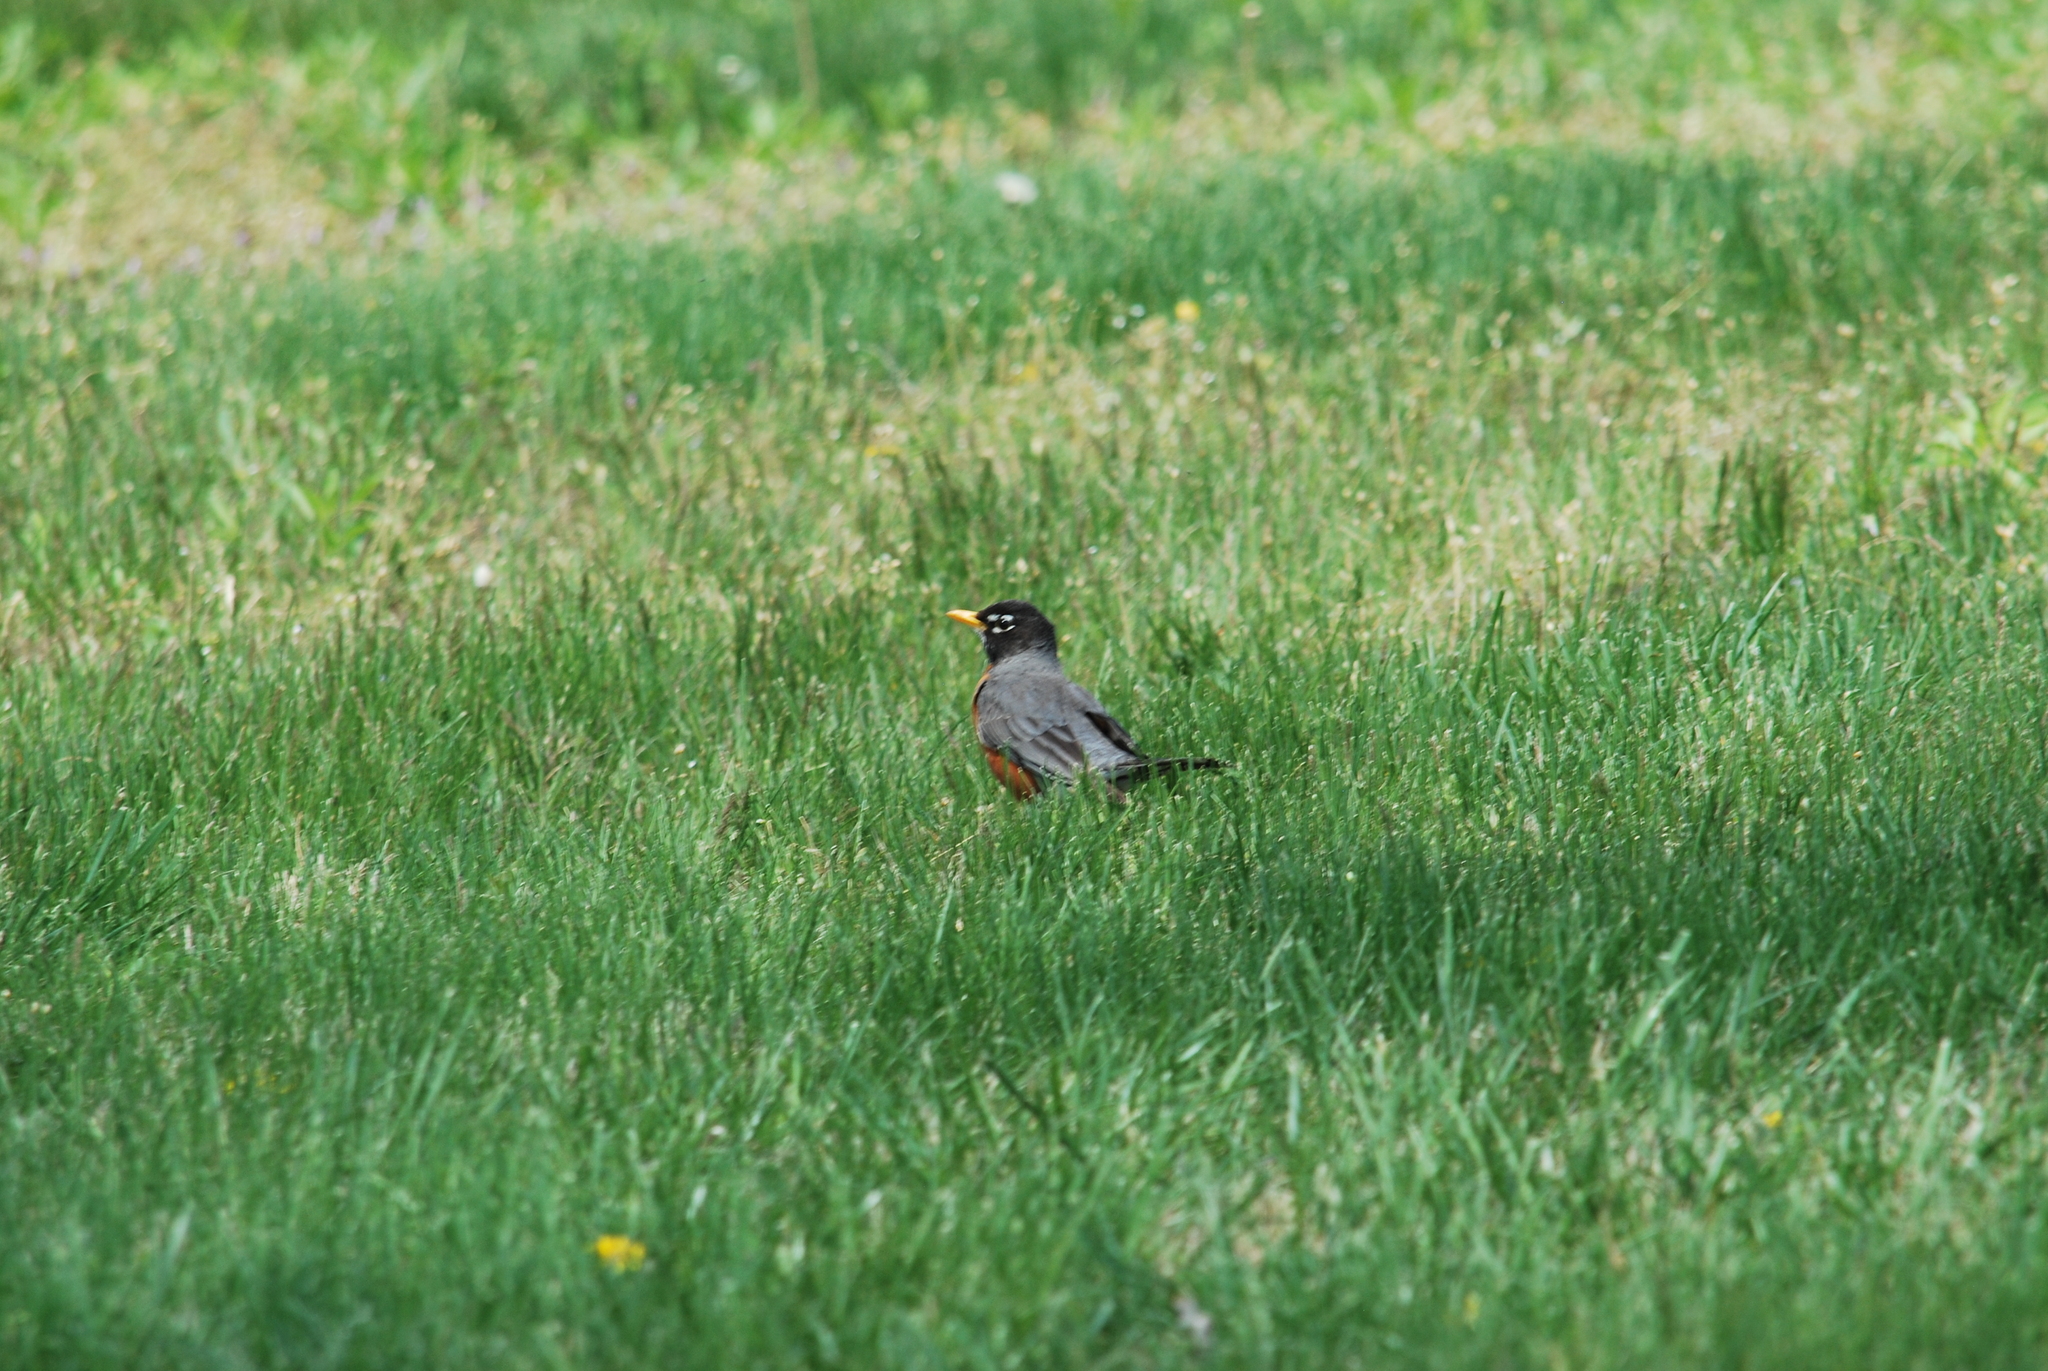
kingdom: Animalia
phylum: Chordata
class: Aves
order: Passeriformes
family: Turdidae
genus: Turdus
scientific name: Turdus migratorius
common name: American robin
